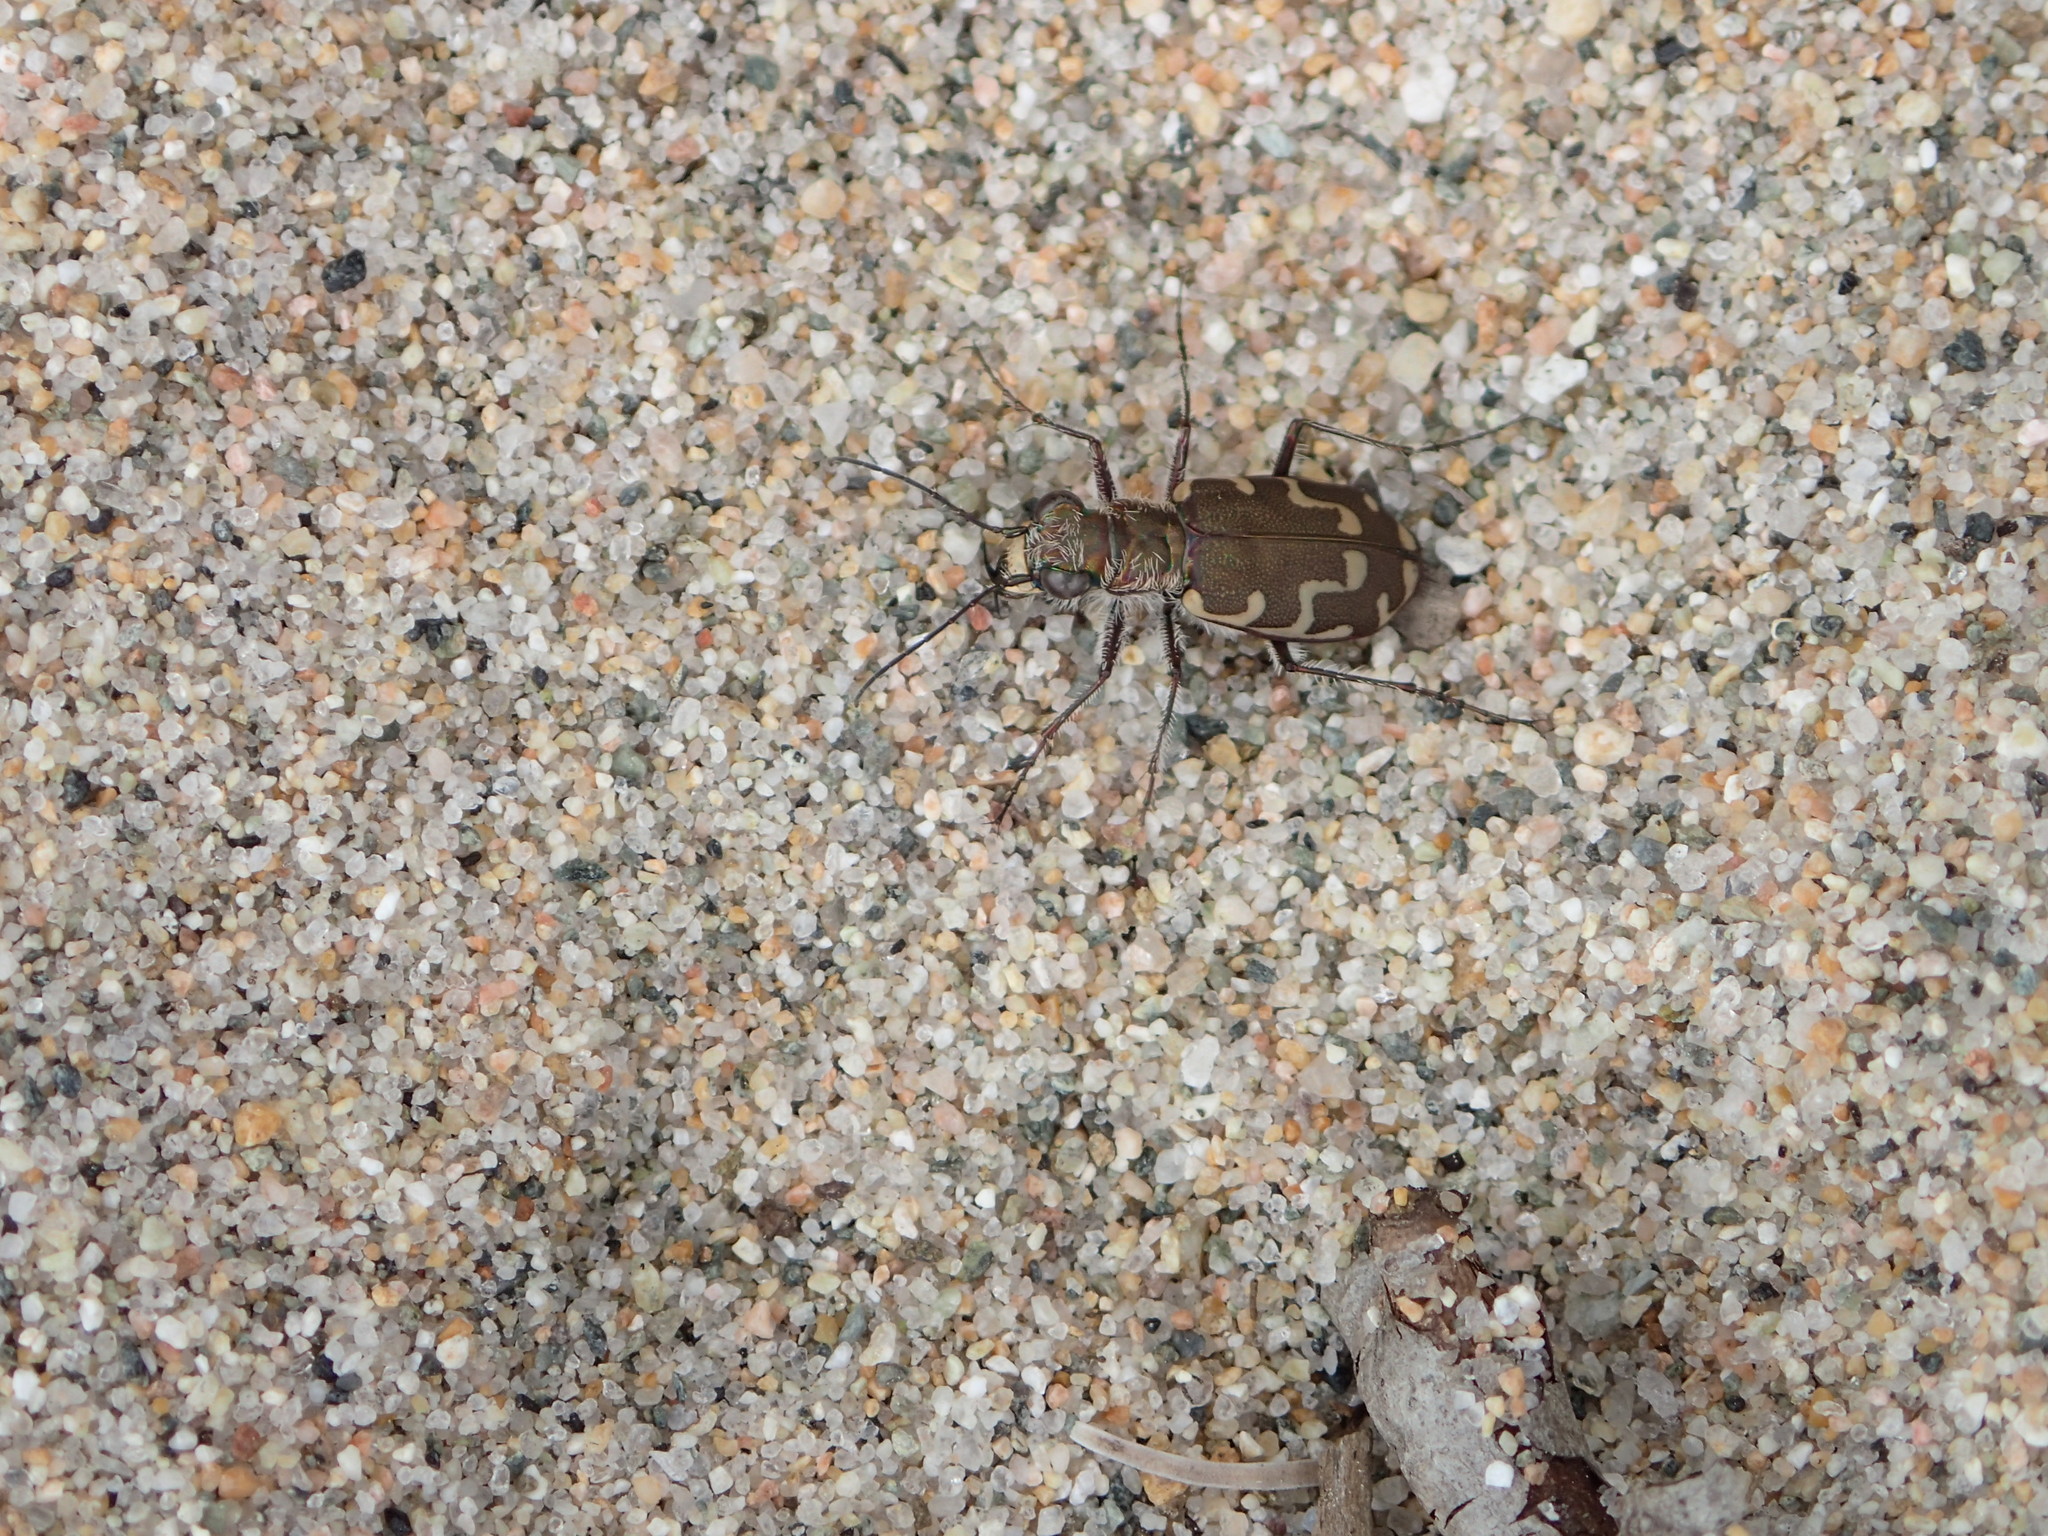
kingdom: Animalia
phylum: Arthropoda
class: Insecta
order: Coleoptera
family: Carabidae
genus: Cicindela
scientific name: Cicindela repanda
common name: Bronzed tiger beetle
